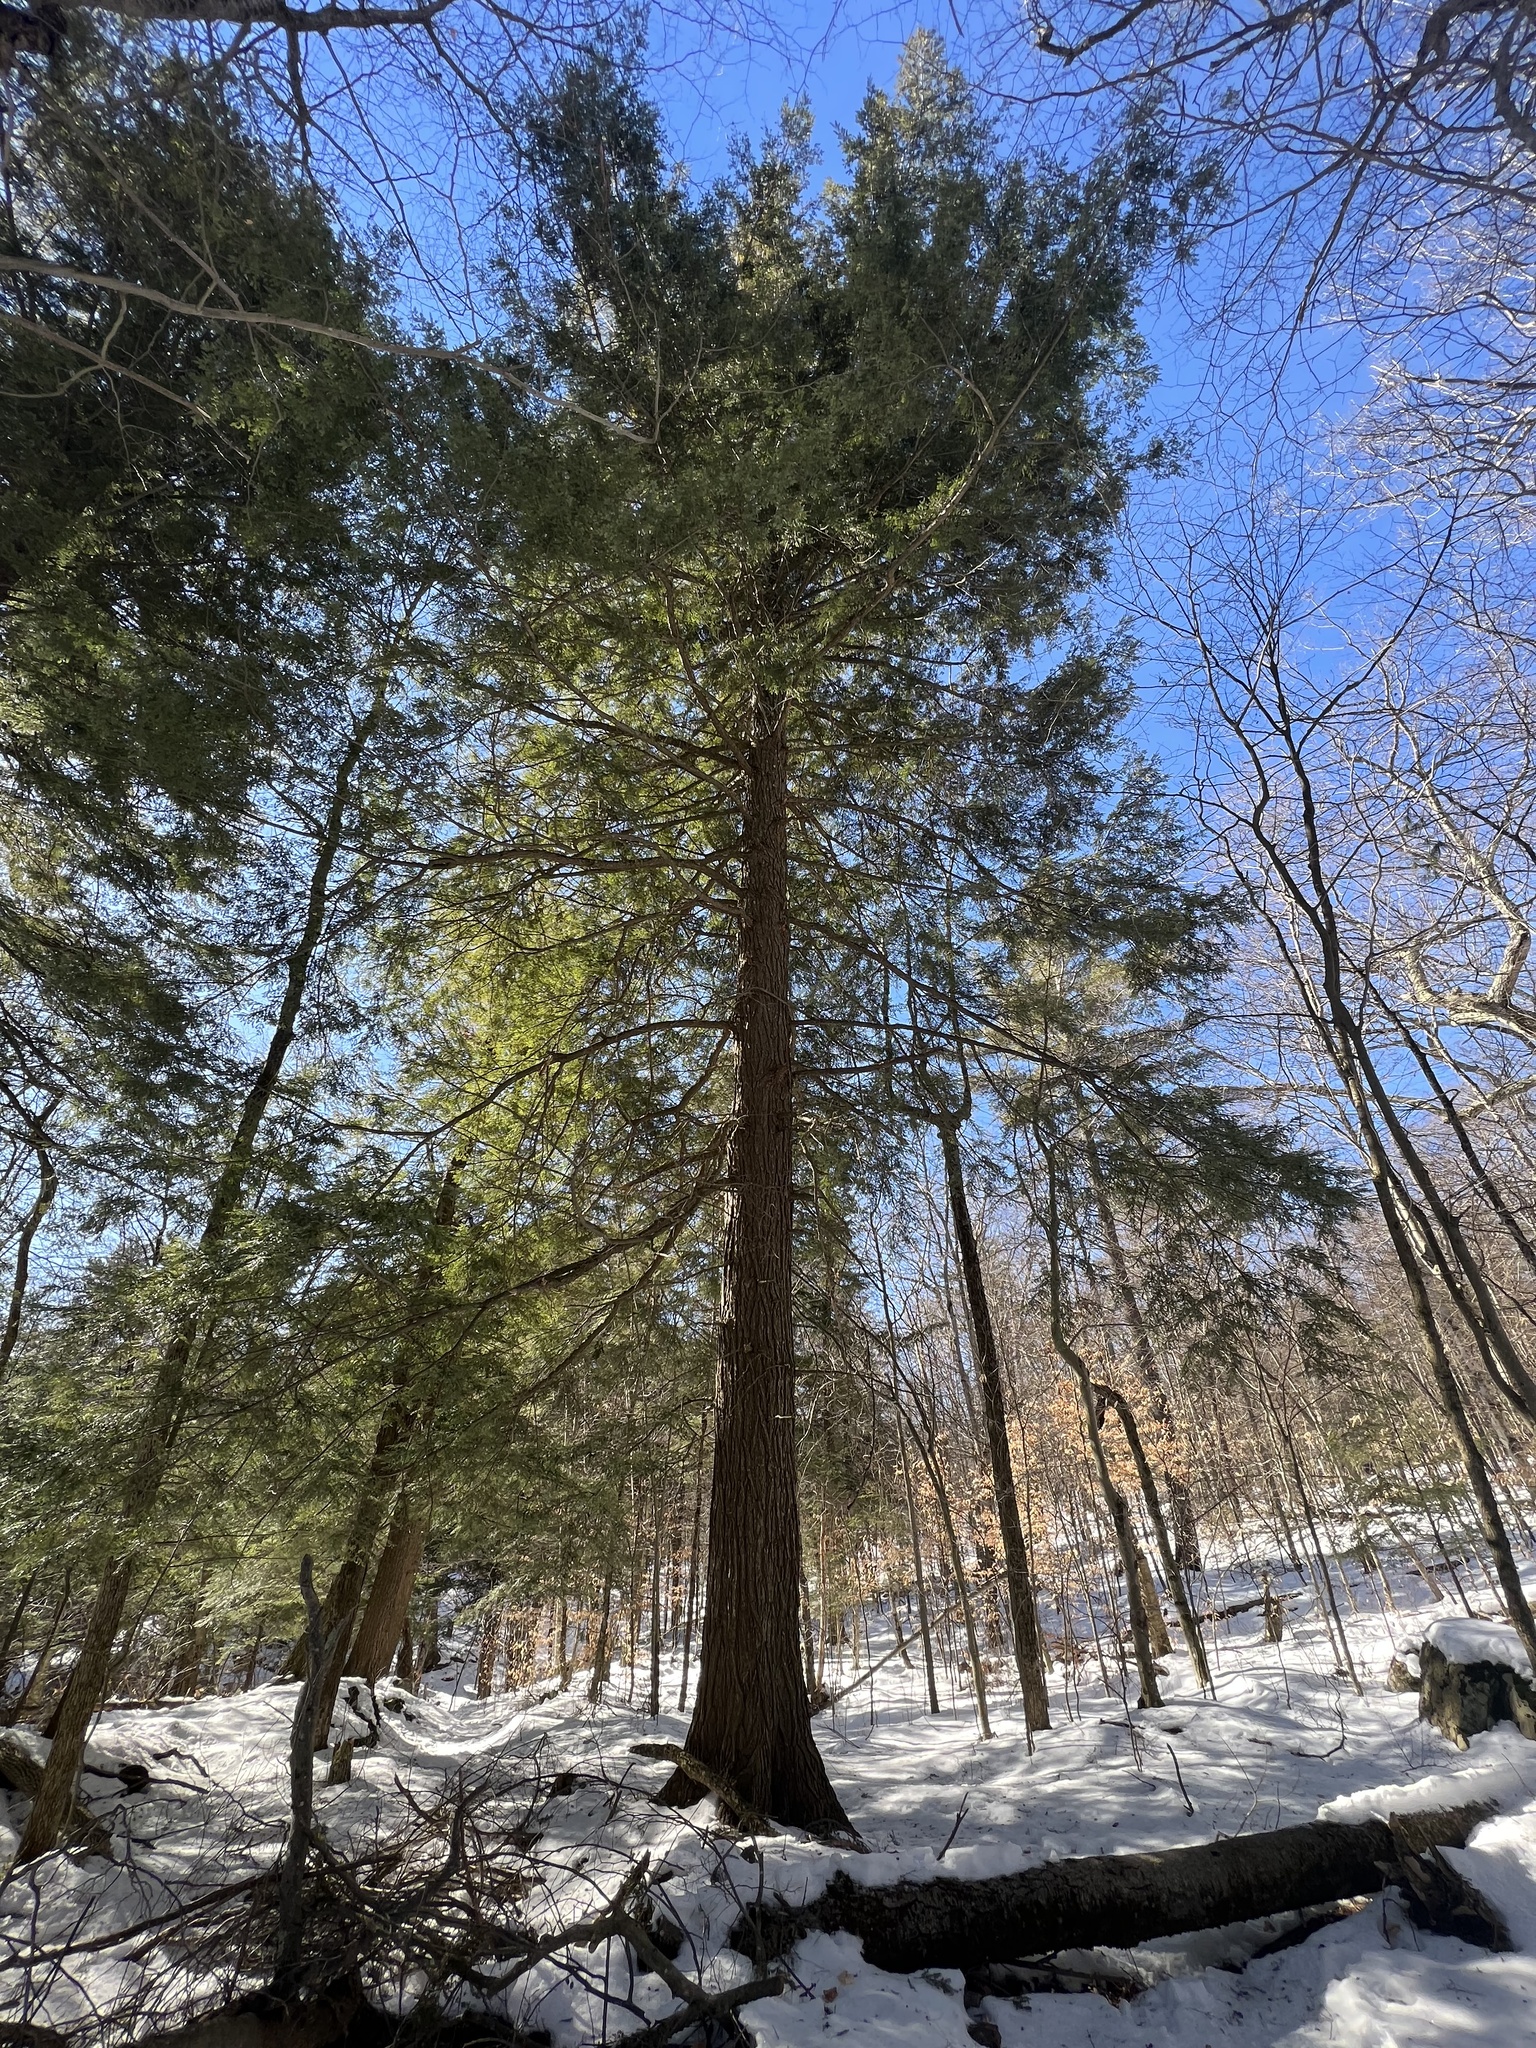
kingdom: Plantae
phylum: Tracheophyta
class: Pinopsida
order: Pinales
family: Pinaceae
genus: Tsuga
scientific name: Tsuga canadensis
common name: Eastern hemlock
